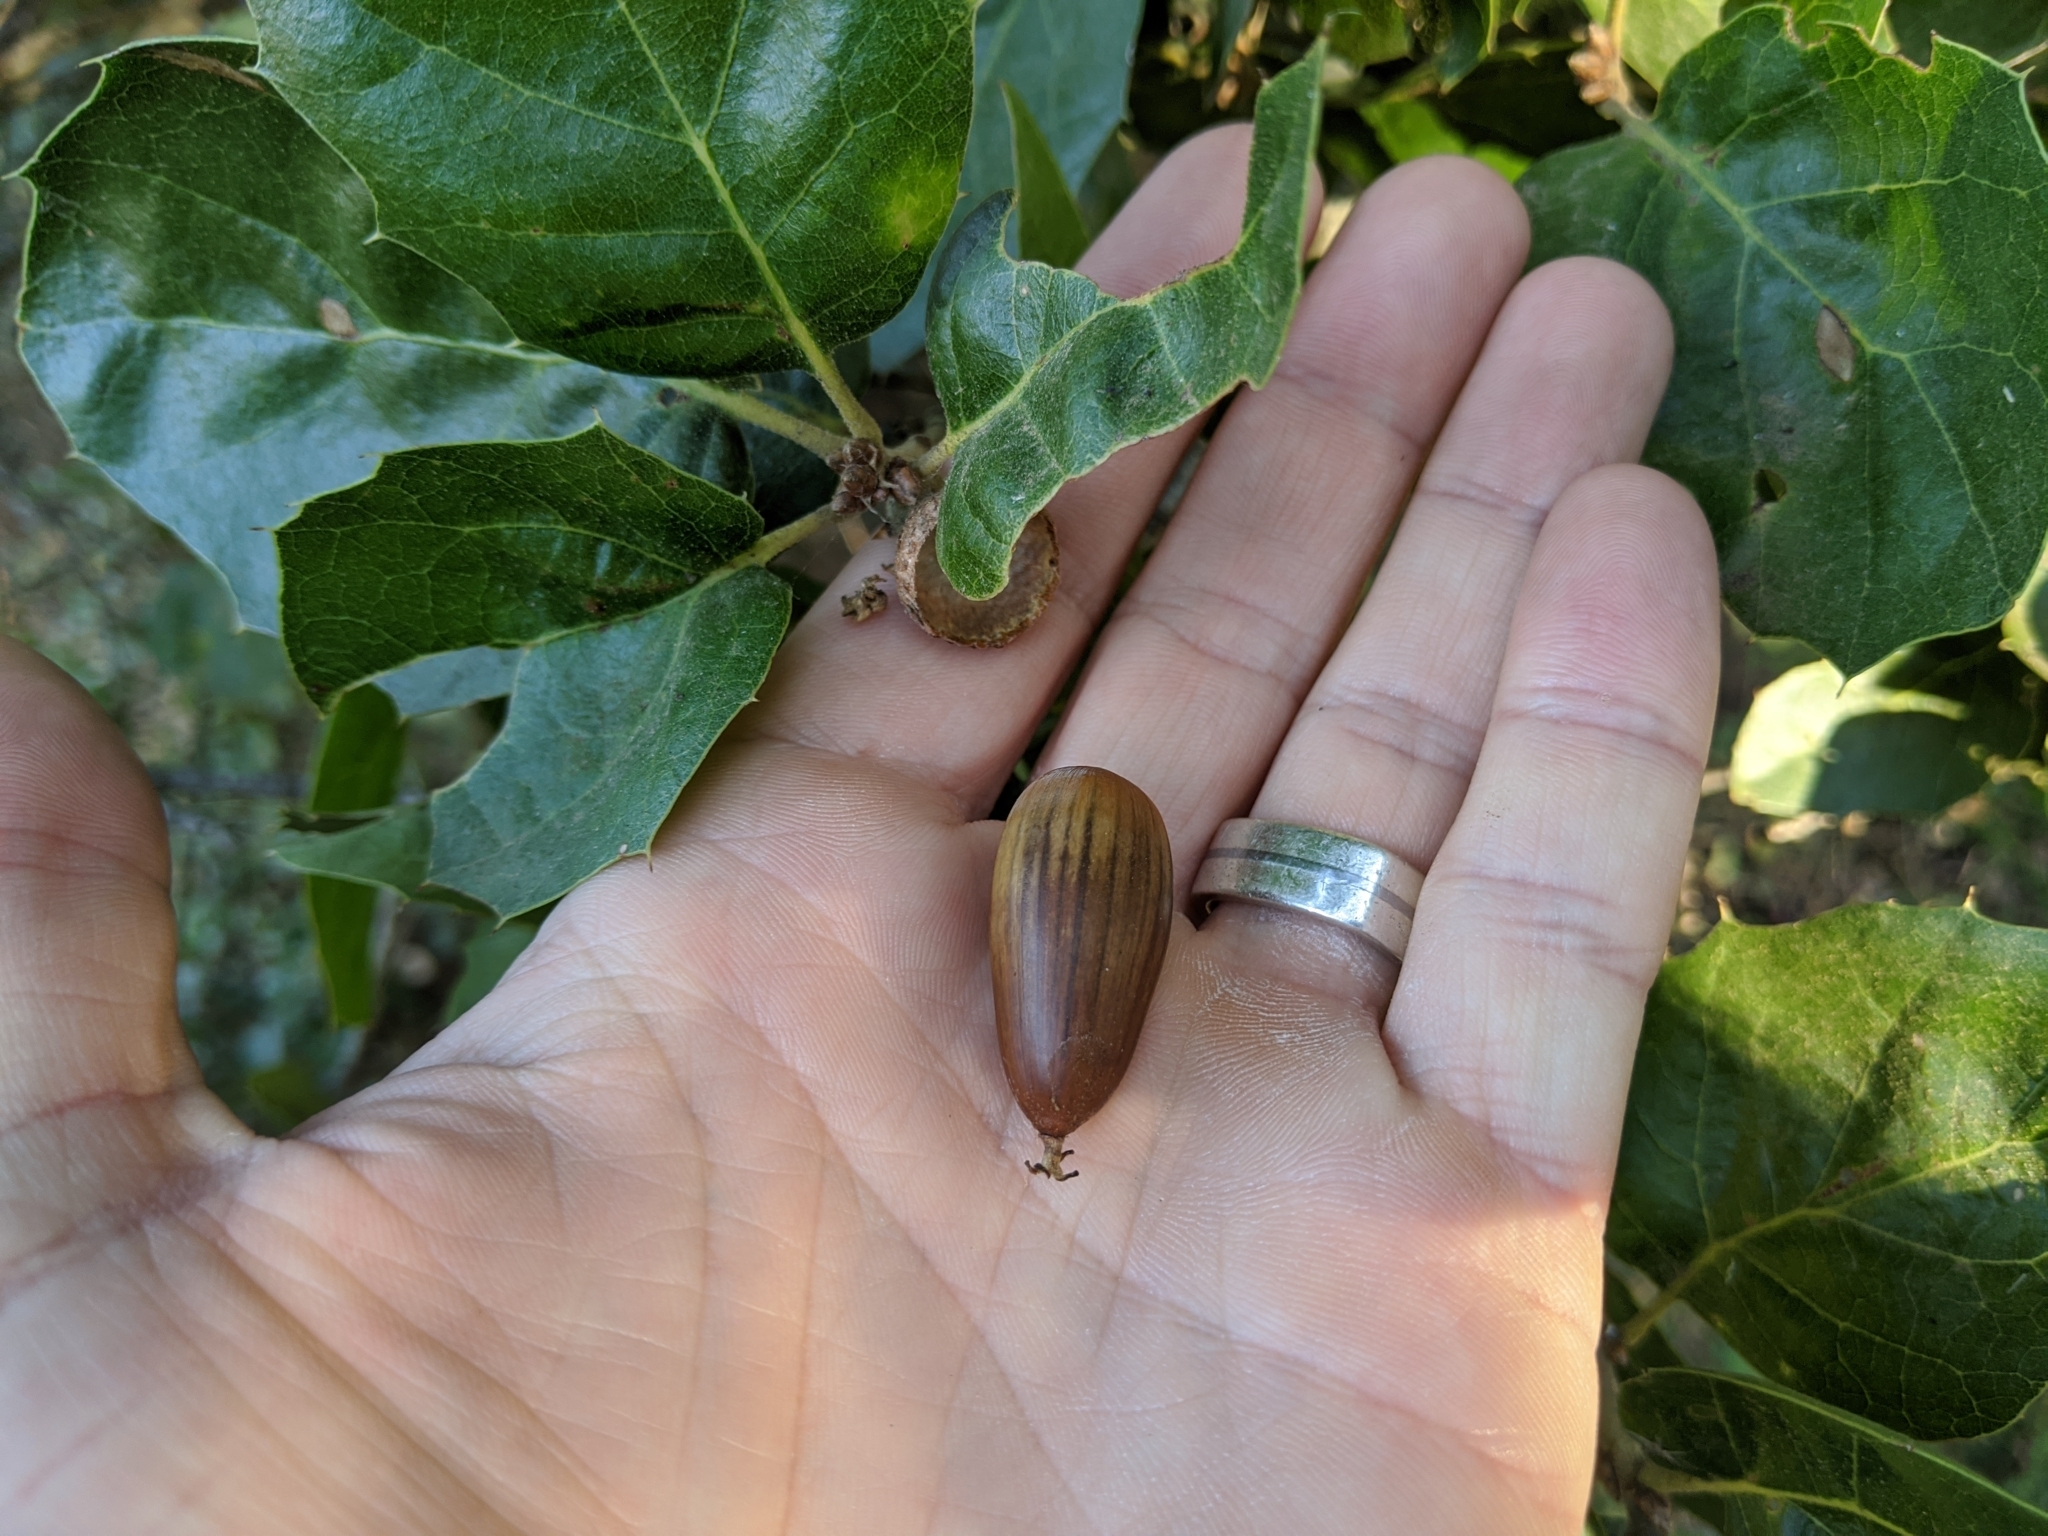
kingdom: Plantae
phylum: Tracheophyta
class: Magnoliopsida
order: Fagales
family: Fagaceae
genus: Quercus
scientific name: Quercus agrifolia
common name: California live oak
